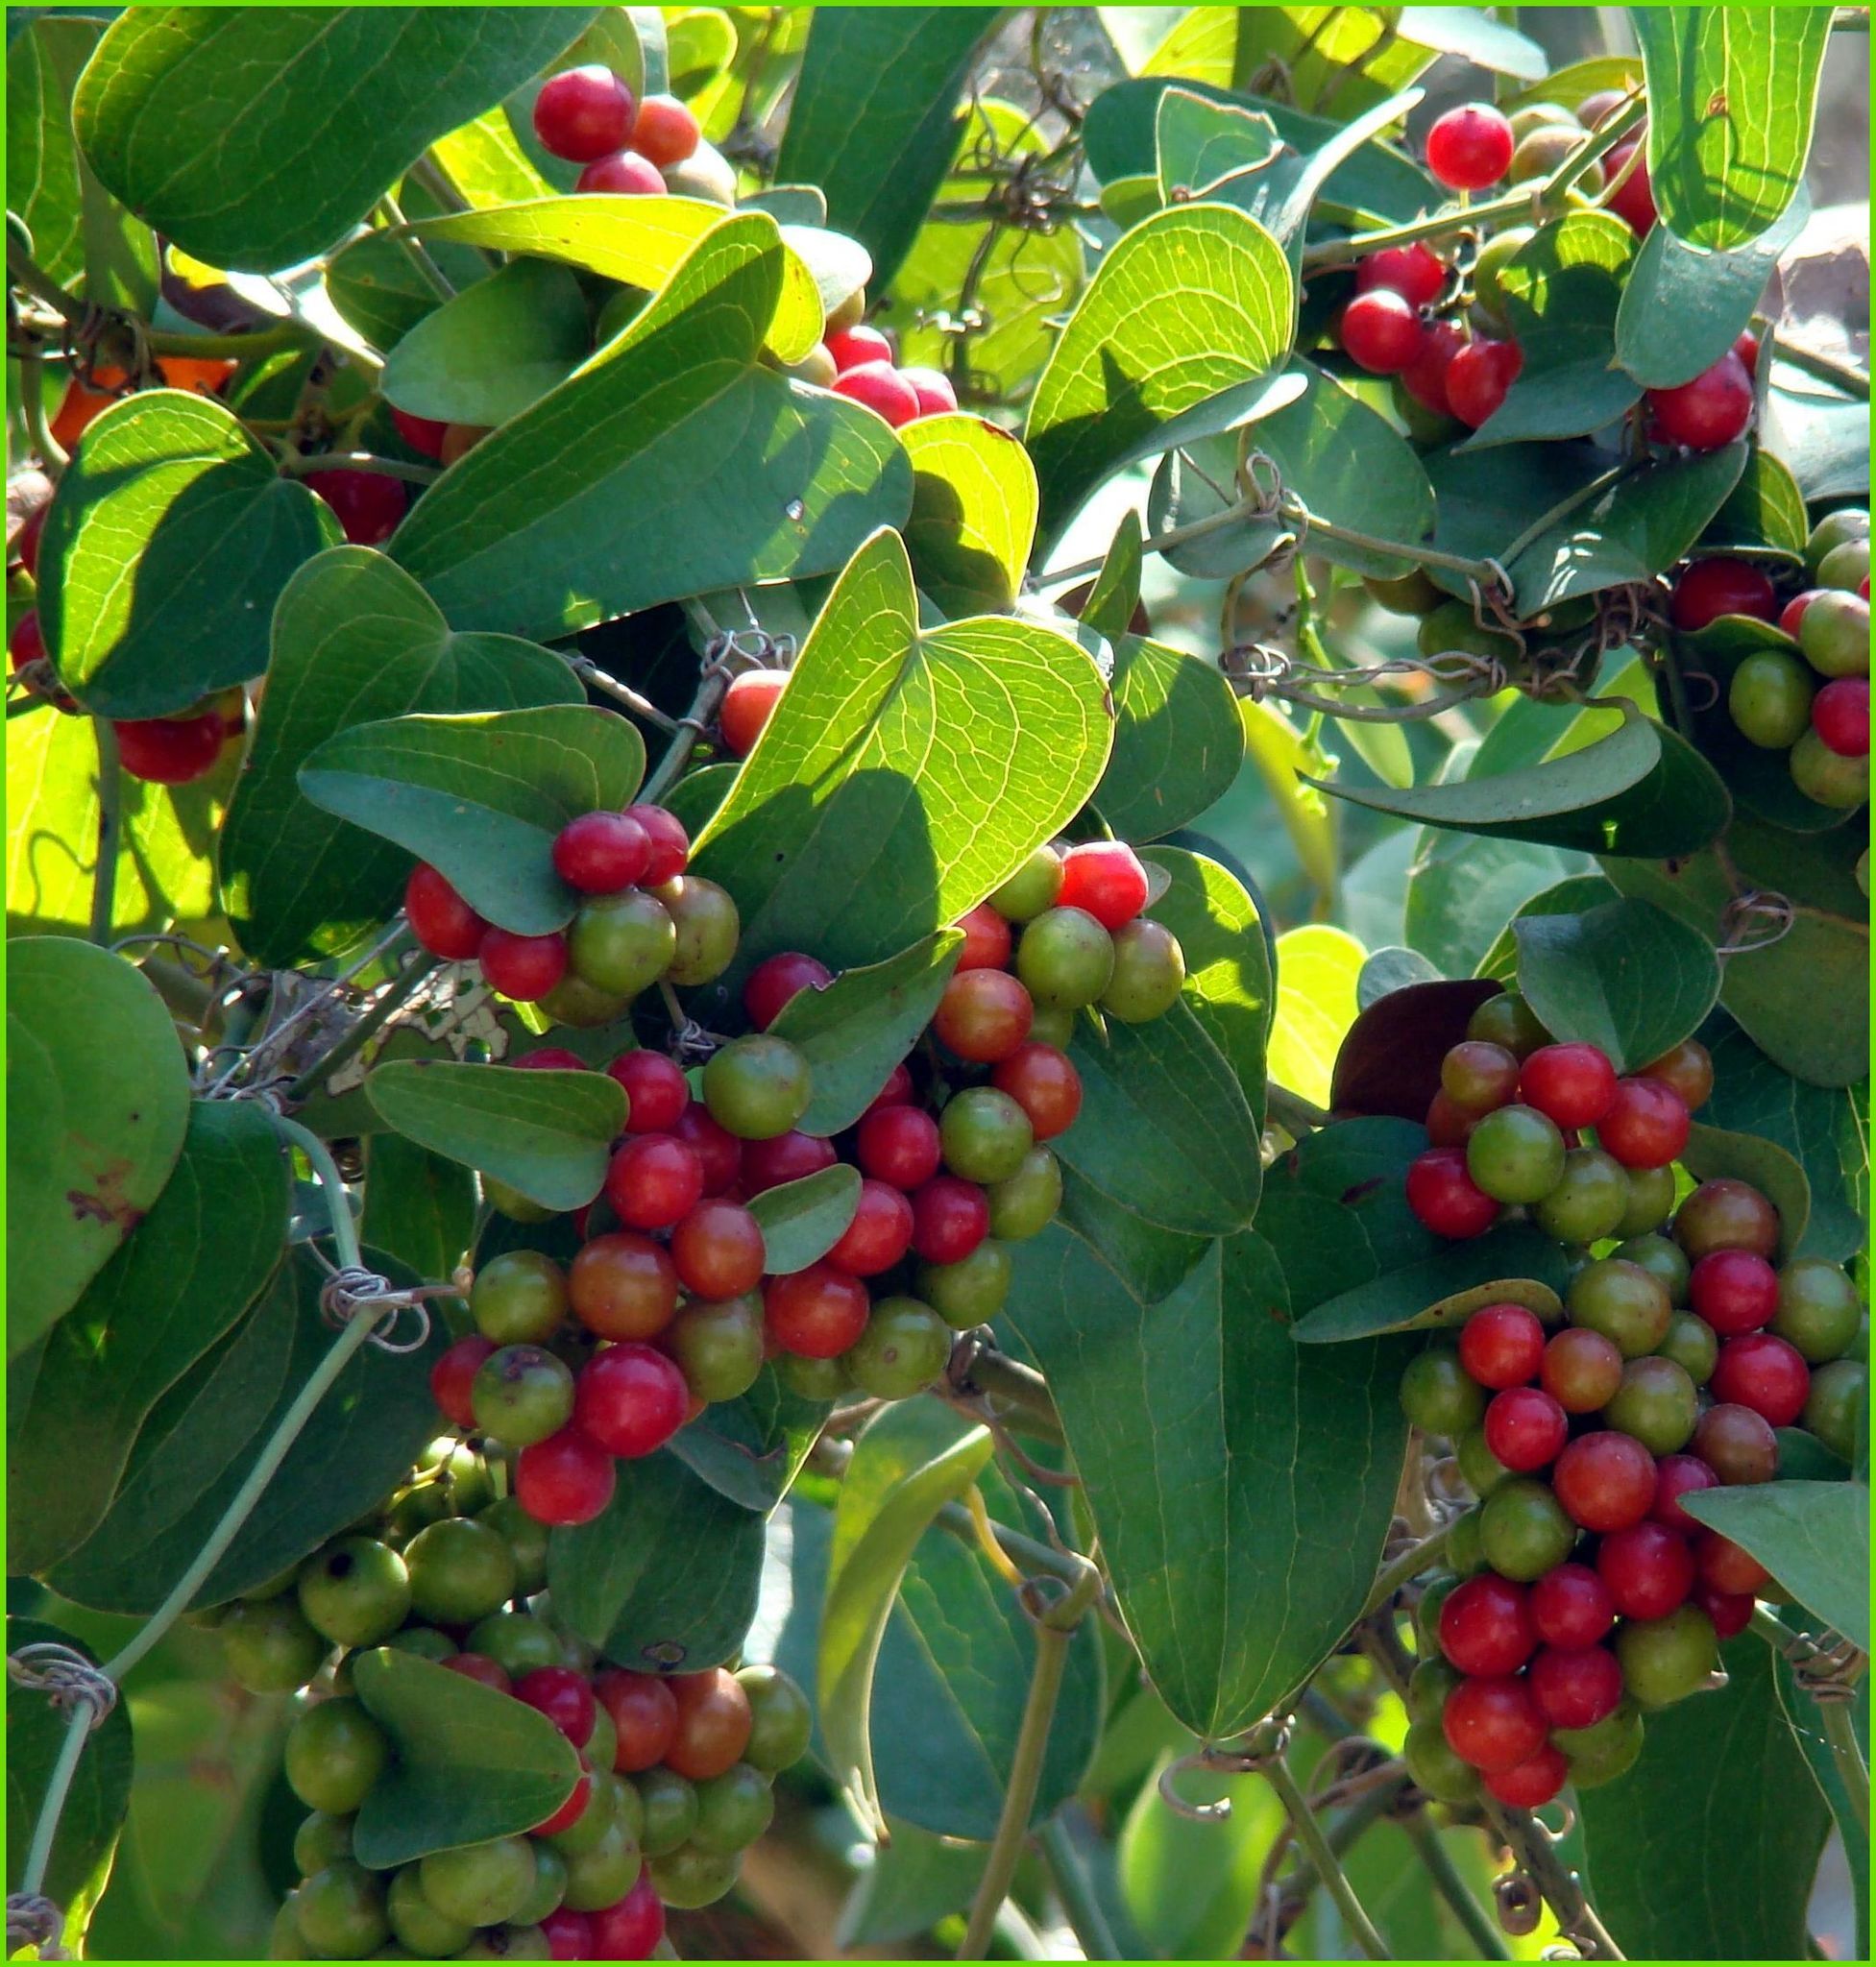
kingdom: Plantae
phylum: Tracheophyta
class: Liliopsida
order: Liliales
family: Smilacaceae
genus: Smilax
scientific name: Smilax excelsa
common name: Larger smilax
